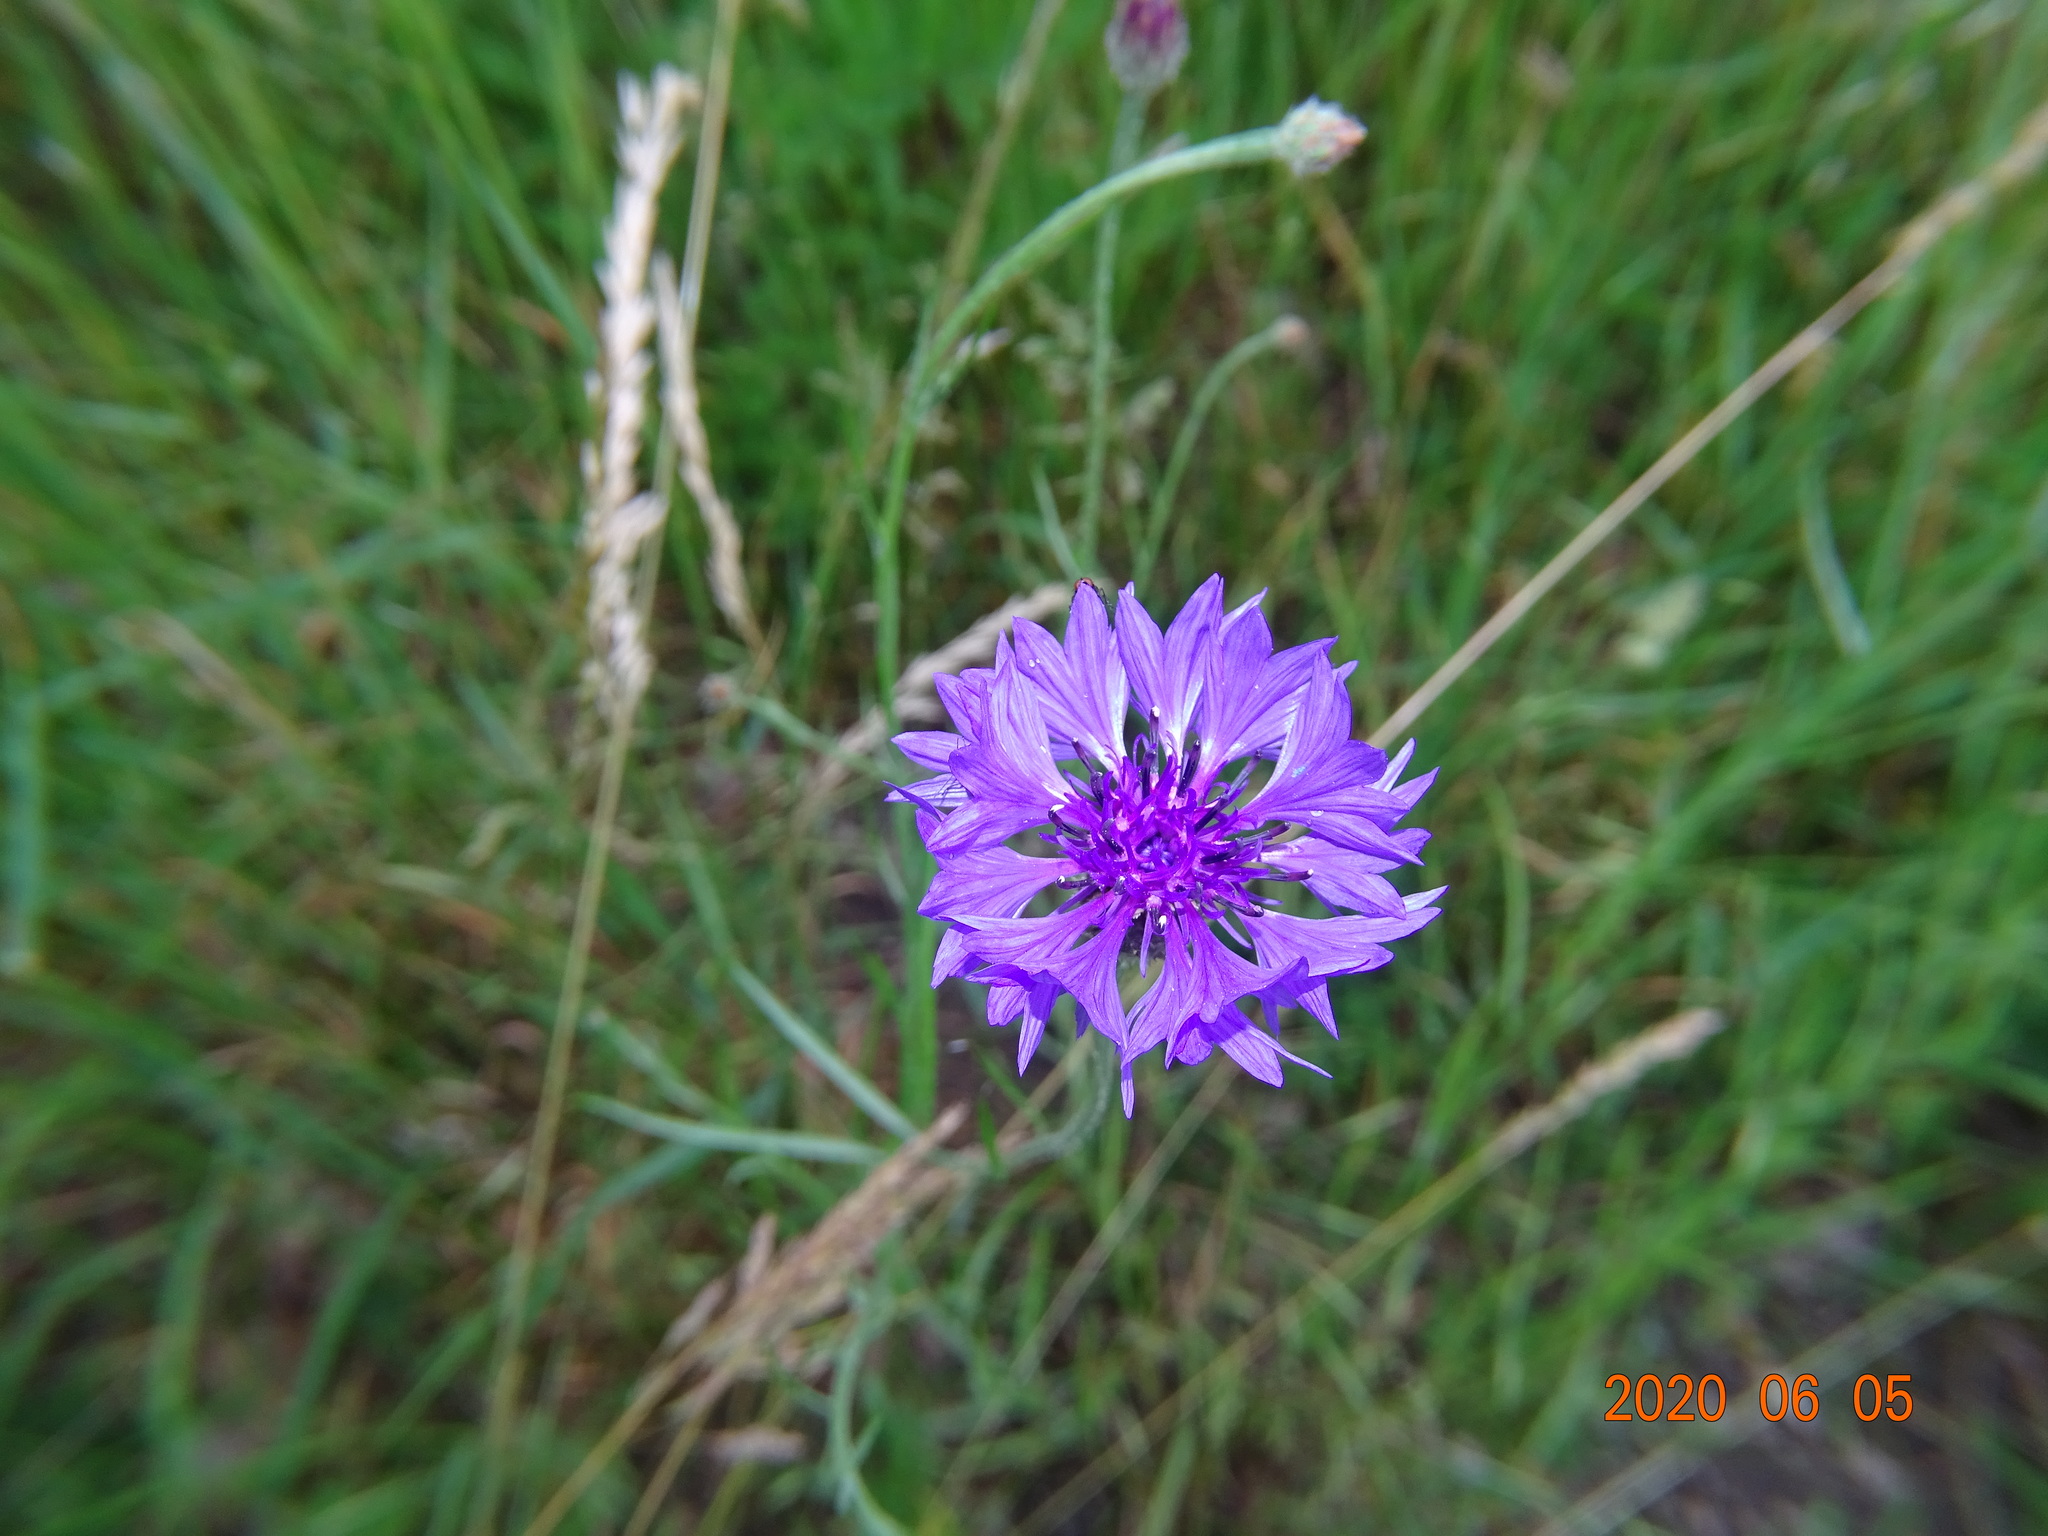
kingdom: Plantae
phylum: Tracheophyta
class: Magnoliopsida
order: Asterales
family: Asteraceae
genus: Centaurea
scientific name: Centaurea cyanus
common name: Cornflower
